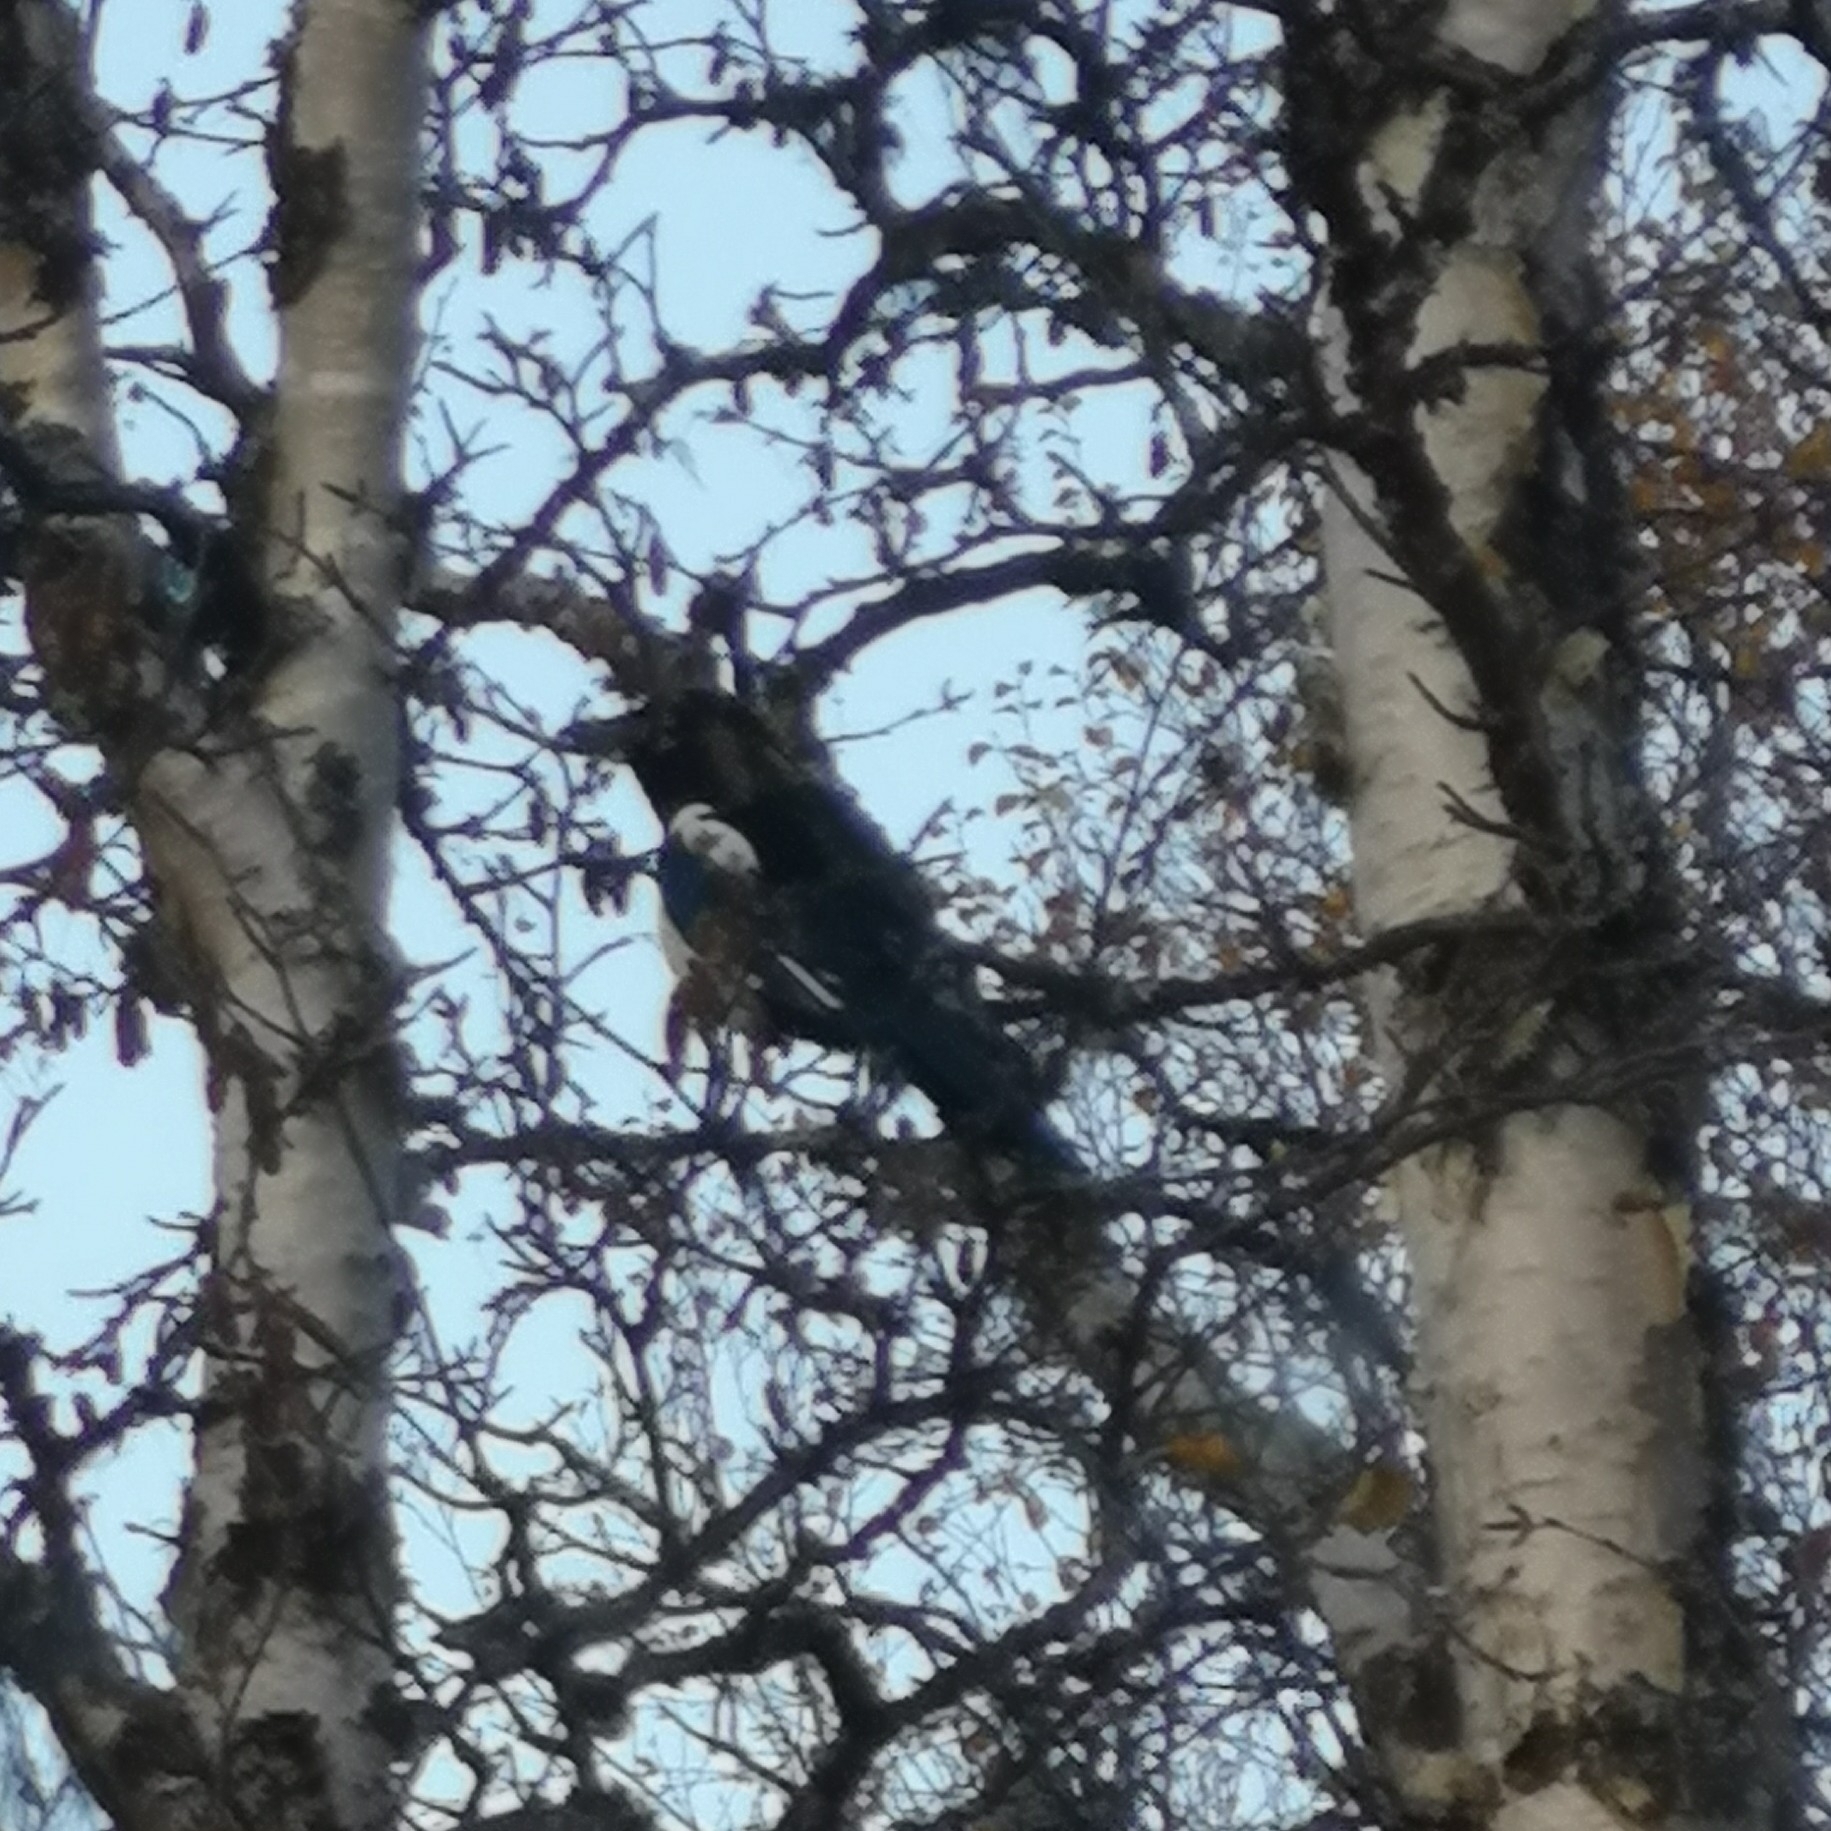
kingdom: Animalia
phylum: Chordata
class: Aves
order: Passeriformes
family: Corvidae
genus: Pica
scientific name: Pica pica
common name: Eurasian magpie
